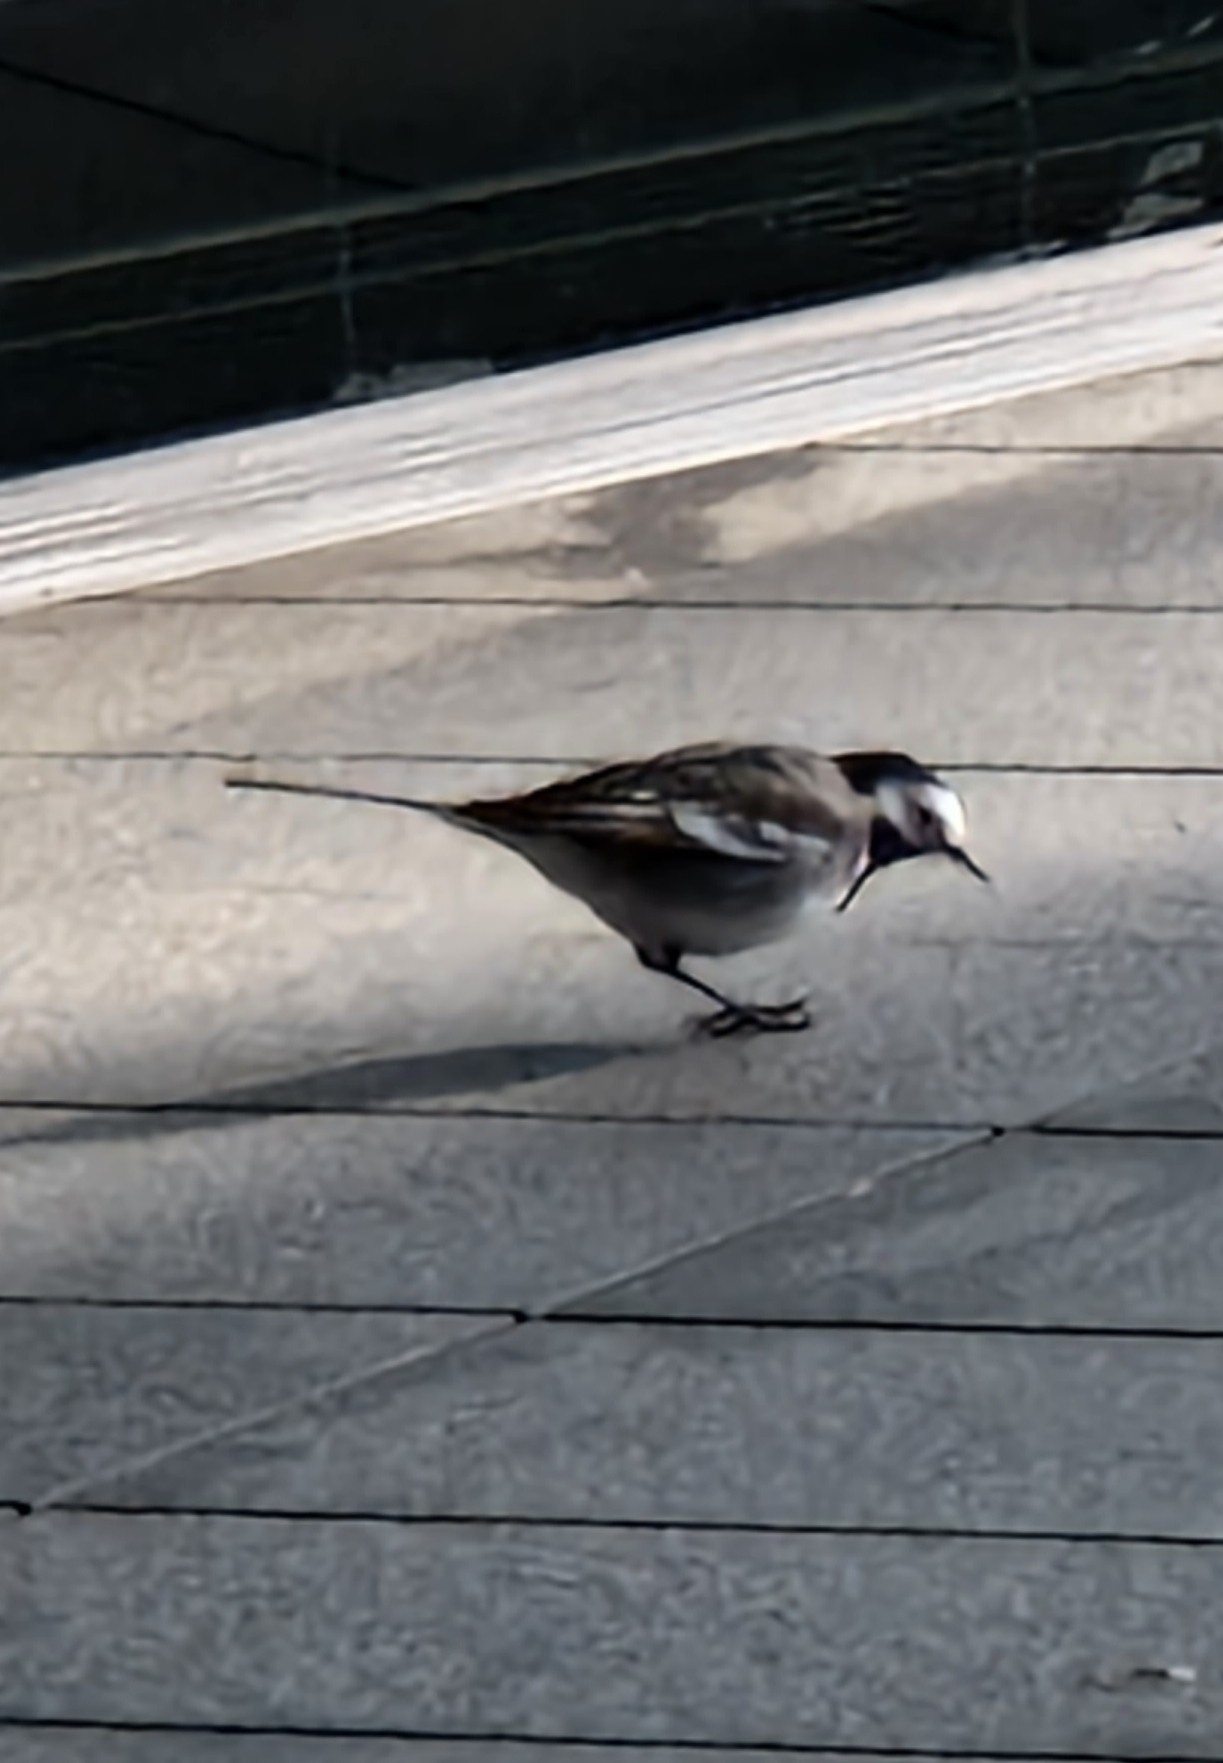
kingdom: Animalia
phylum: Chordata
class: Aves
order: Passeriformes
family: Motacillidae
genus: Motacilla
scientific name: Motacilla alba
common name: White wagtail
